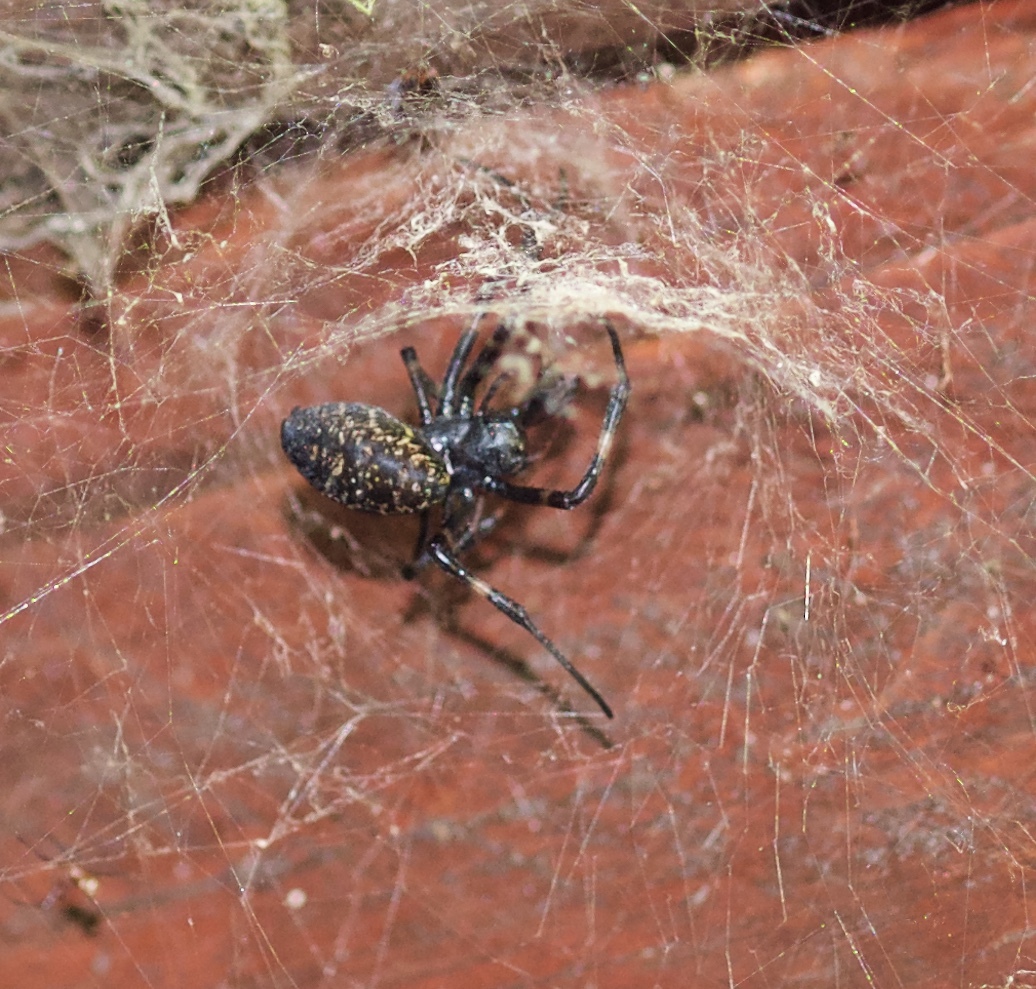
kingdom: Animalia
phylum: Arthropoda
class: Arachnida
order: Araneae
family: Araneidae
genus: Nephilengys
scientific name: Nephilengys malabarensis
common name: Asian hermit spider
